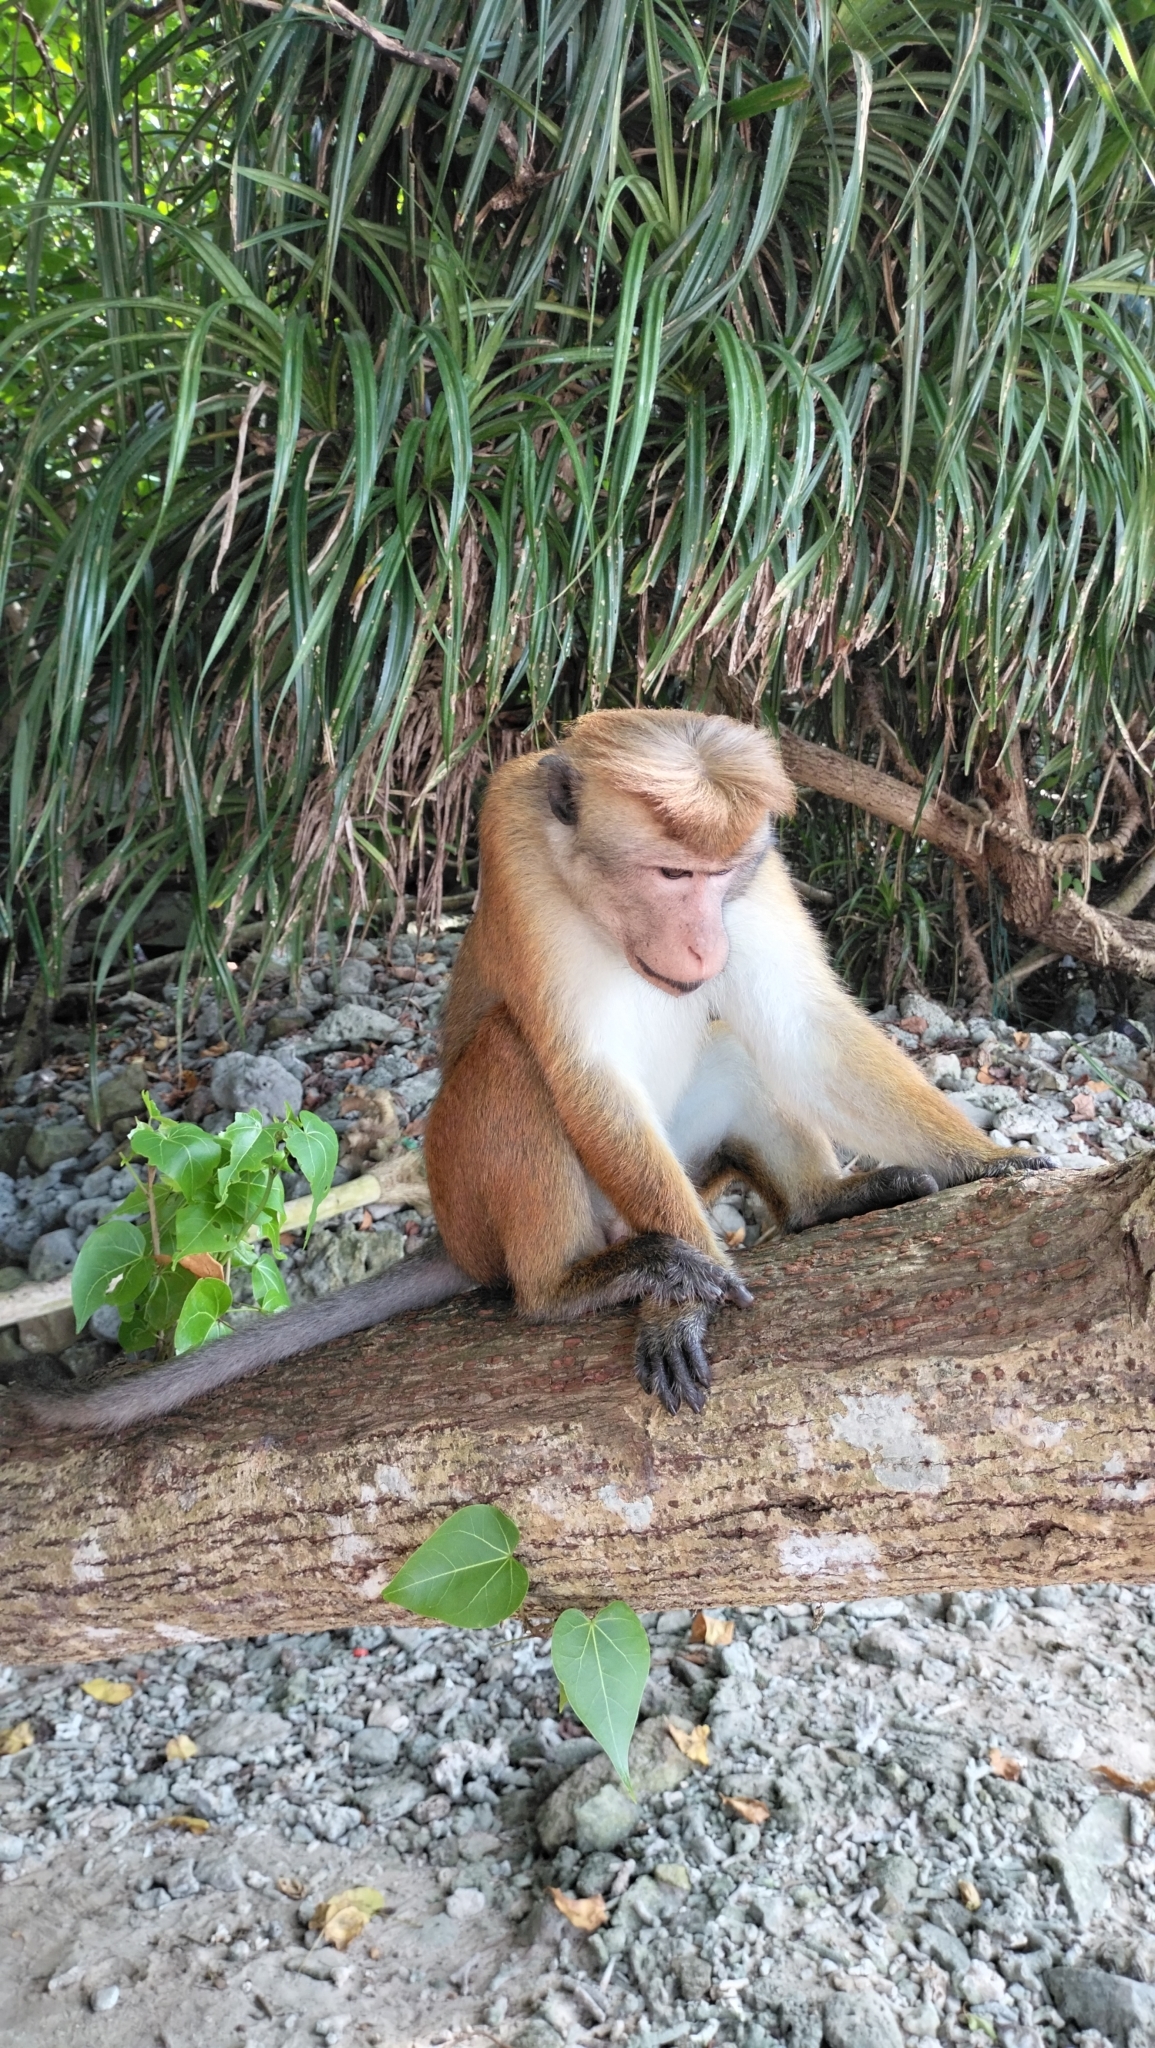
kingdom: Animalia
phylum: Chordata
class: Mammalia
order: Primates
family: Cercopithecidae
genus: Macaca
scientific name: Macaca sinica
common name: Toque macaque
